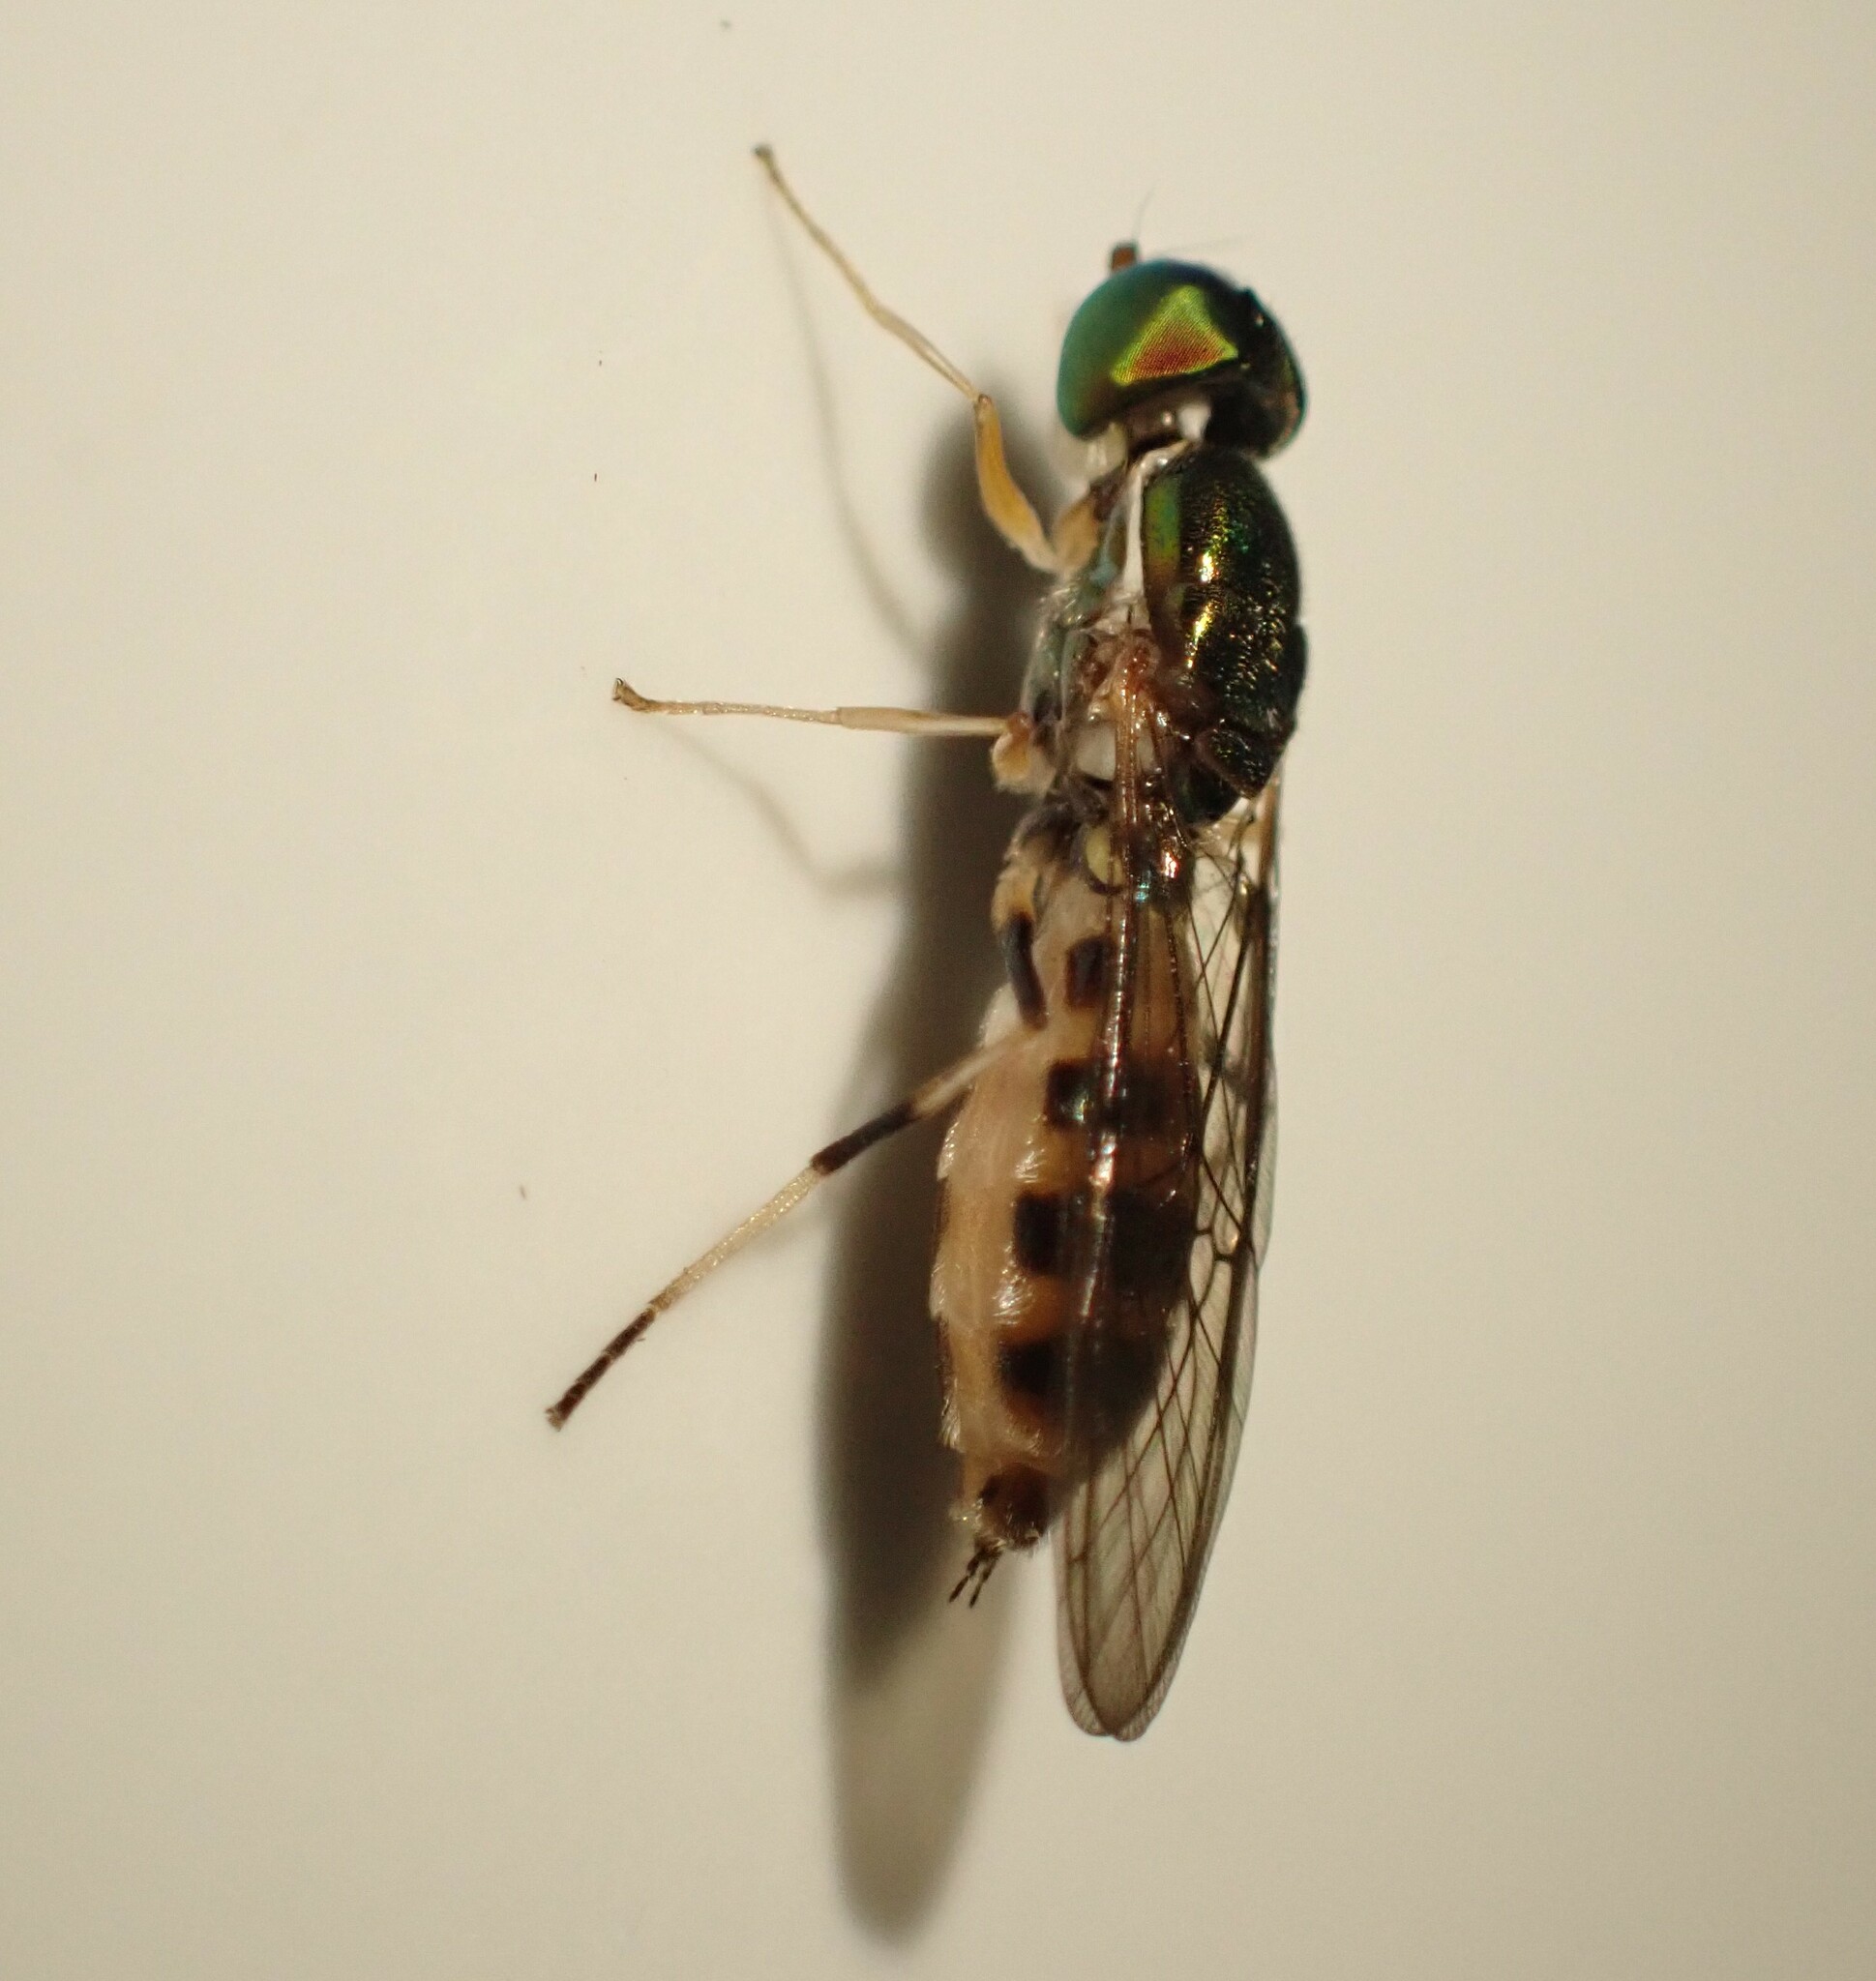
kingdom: Animalia
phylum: Arthropoda
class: Insecta
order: Diptera
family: Stratiomyidae
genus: Sargus
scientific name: Sargus fasciatus
